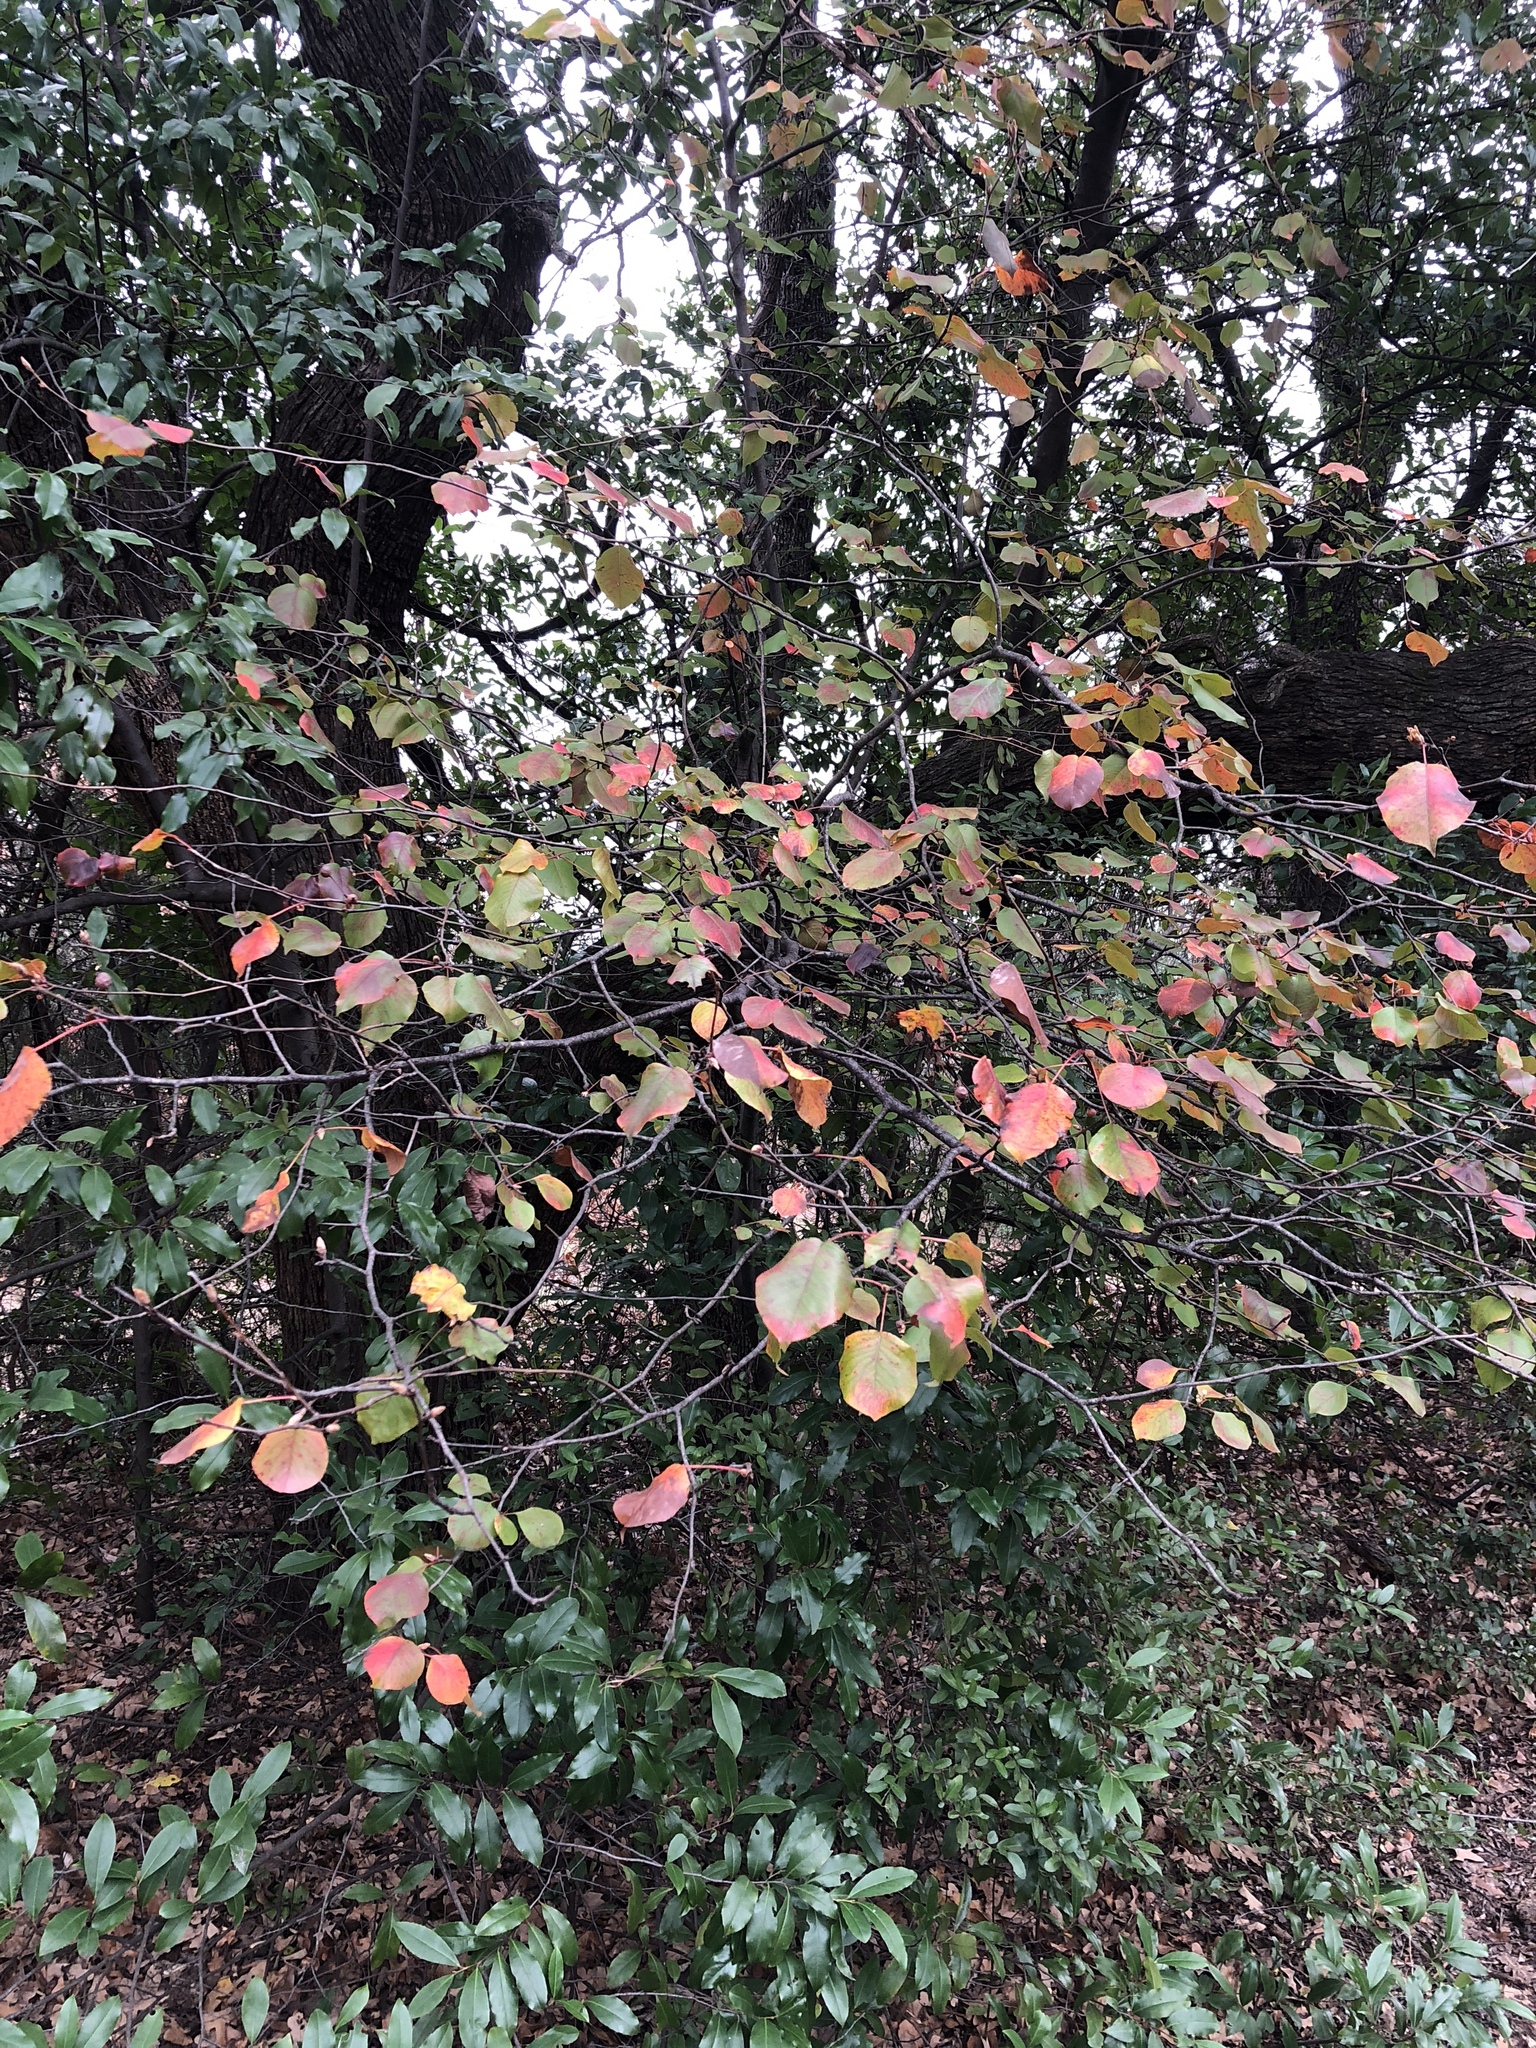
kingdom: Plantae
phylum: Tracheophyta
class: Magnoliopsida
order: Rosales
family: Rosaceae
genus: Pyrus
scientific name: Pyrus calleryana
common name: Callery pear
